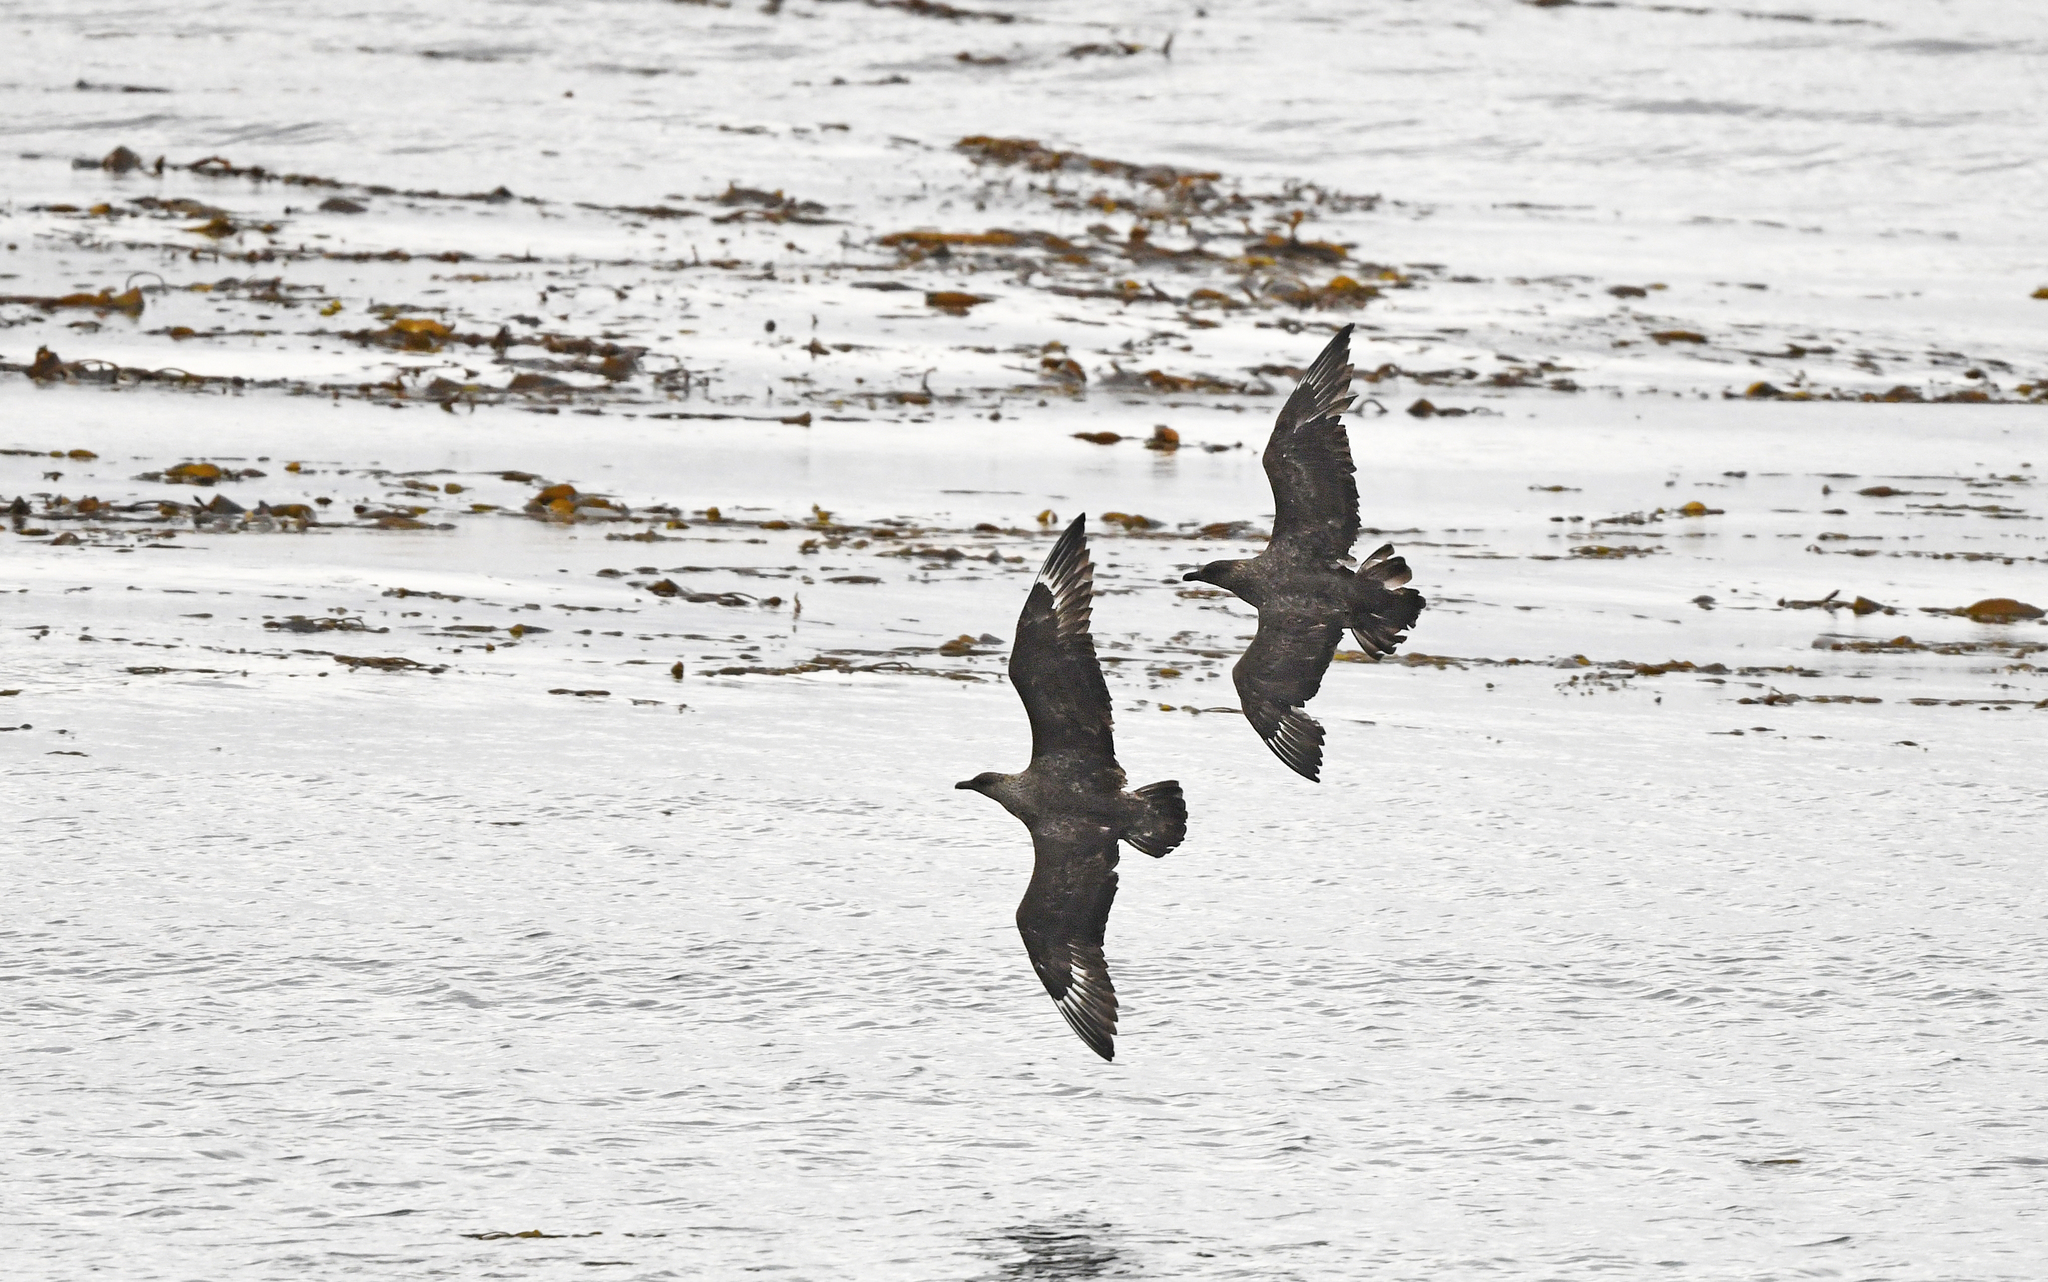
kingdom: Animalia
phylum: Chordata
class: Aves
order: Charadriiformes
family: Stercorariidae
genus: Stercorarius
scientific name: Stercorarius chilensis
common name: Chilean skua
